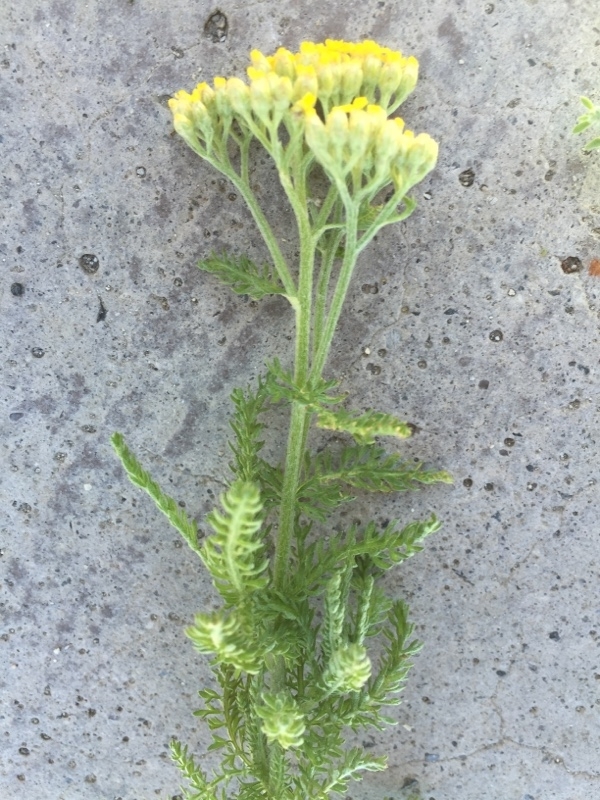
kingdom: Plantae
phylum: Tracheophyta
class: Magnoliopsida
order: Asterales
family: Asteraceae
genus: Achillea
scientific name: Achillea arabica
